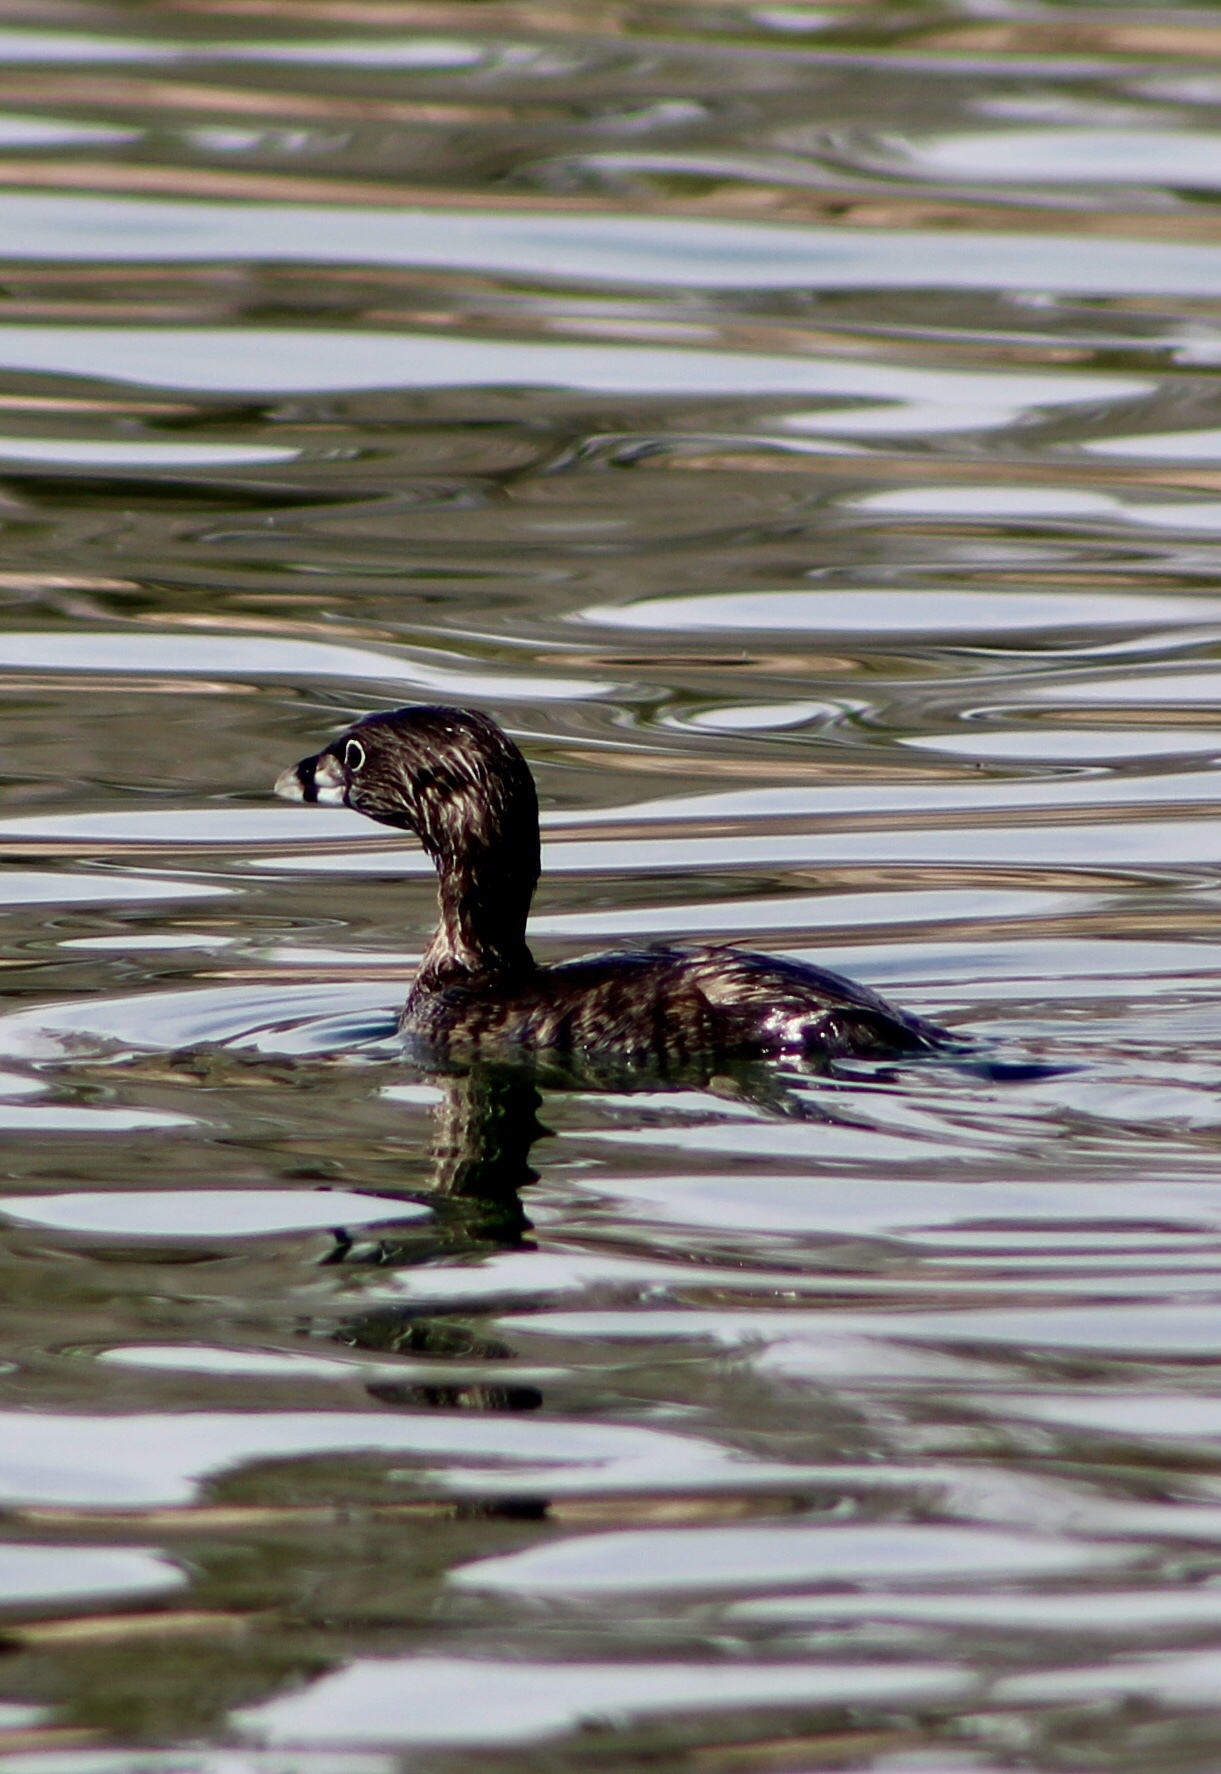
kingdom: Animalia
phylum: Chordata
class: Aves
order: Podicipediformes
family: Podicipedidae
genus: Podilymbus
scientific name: Podilymbus podiceps
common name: Pied-billed grebe
